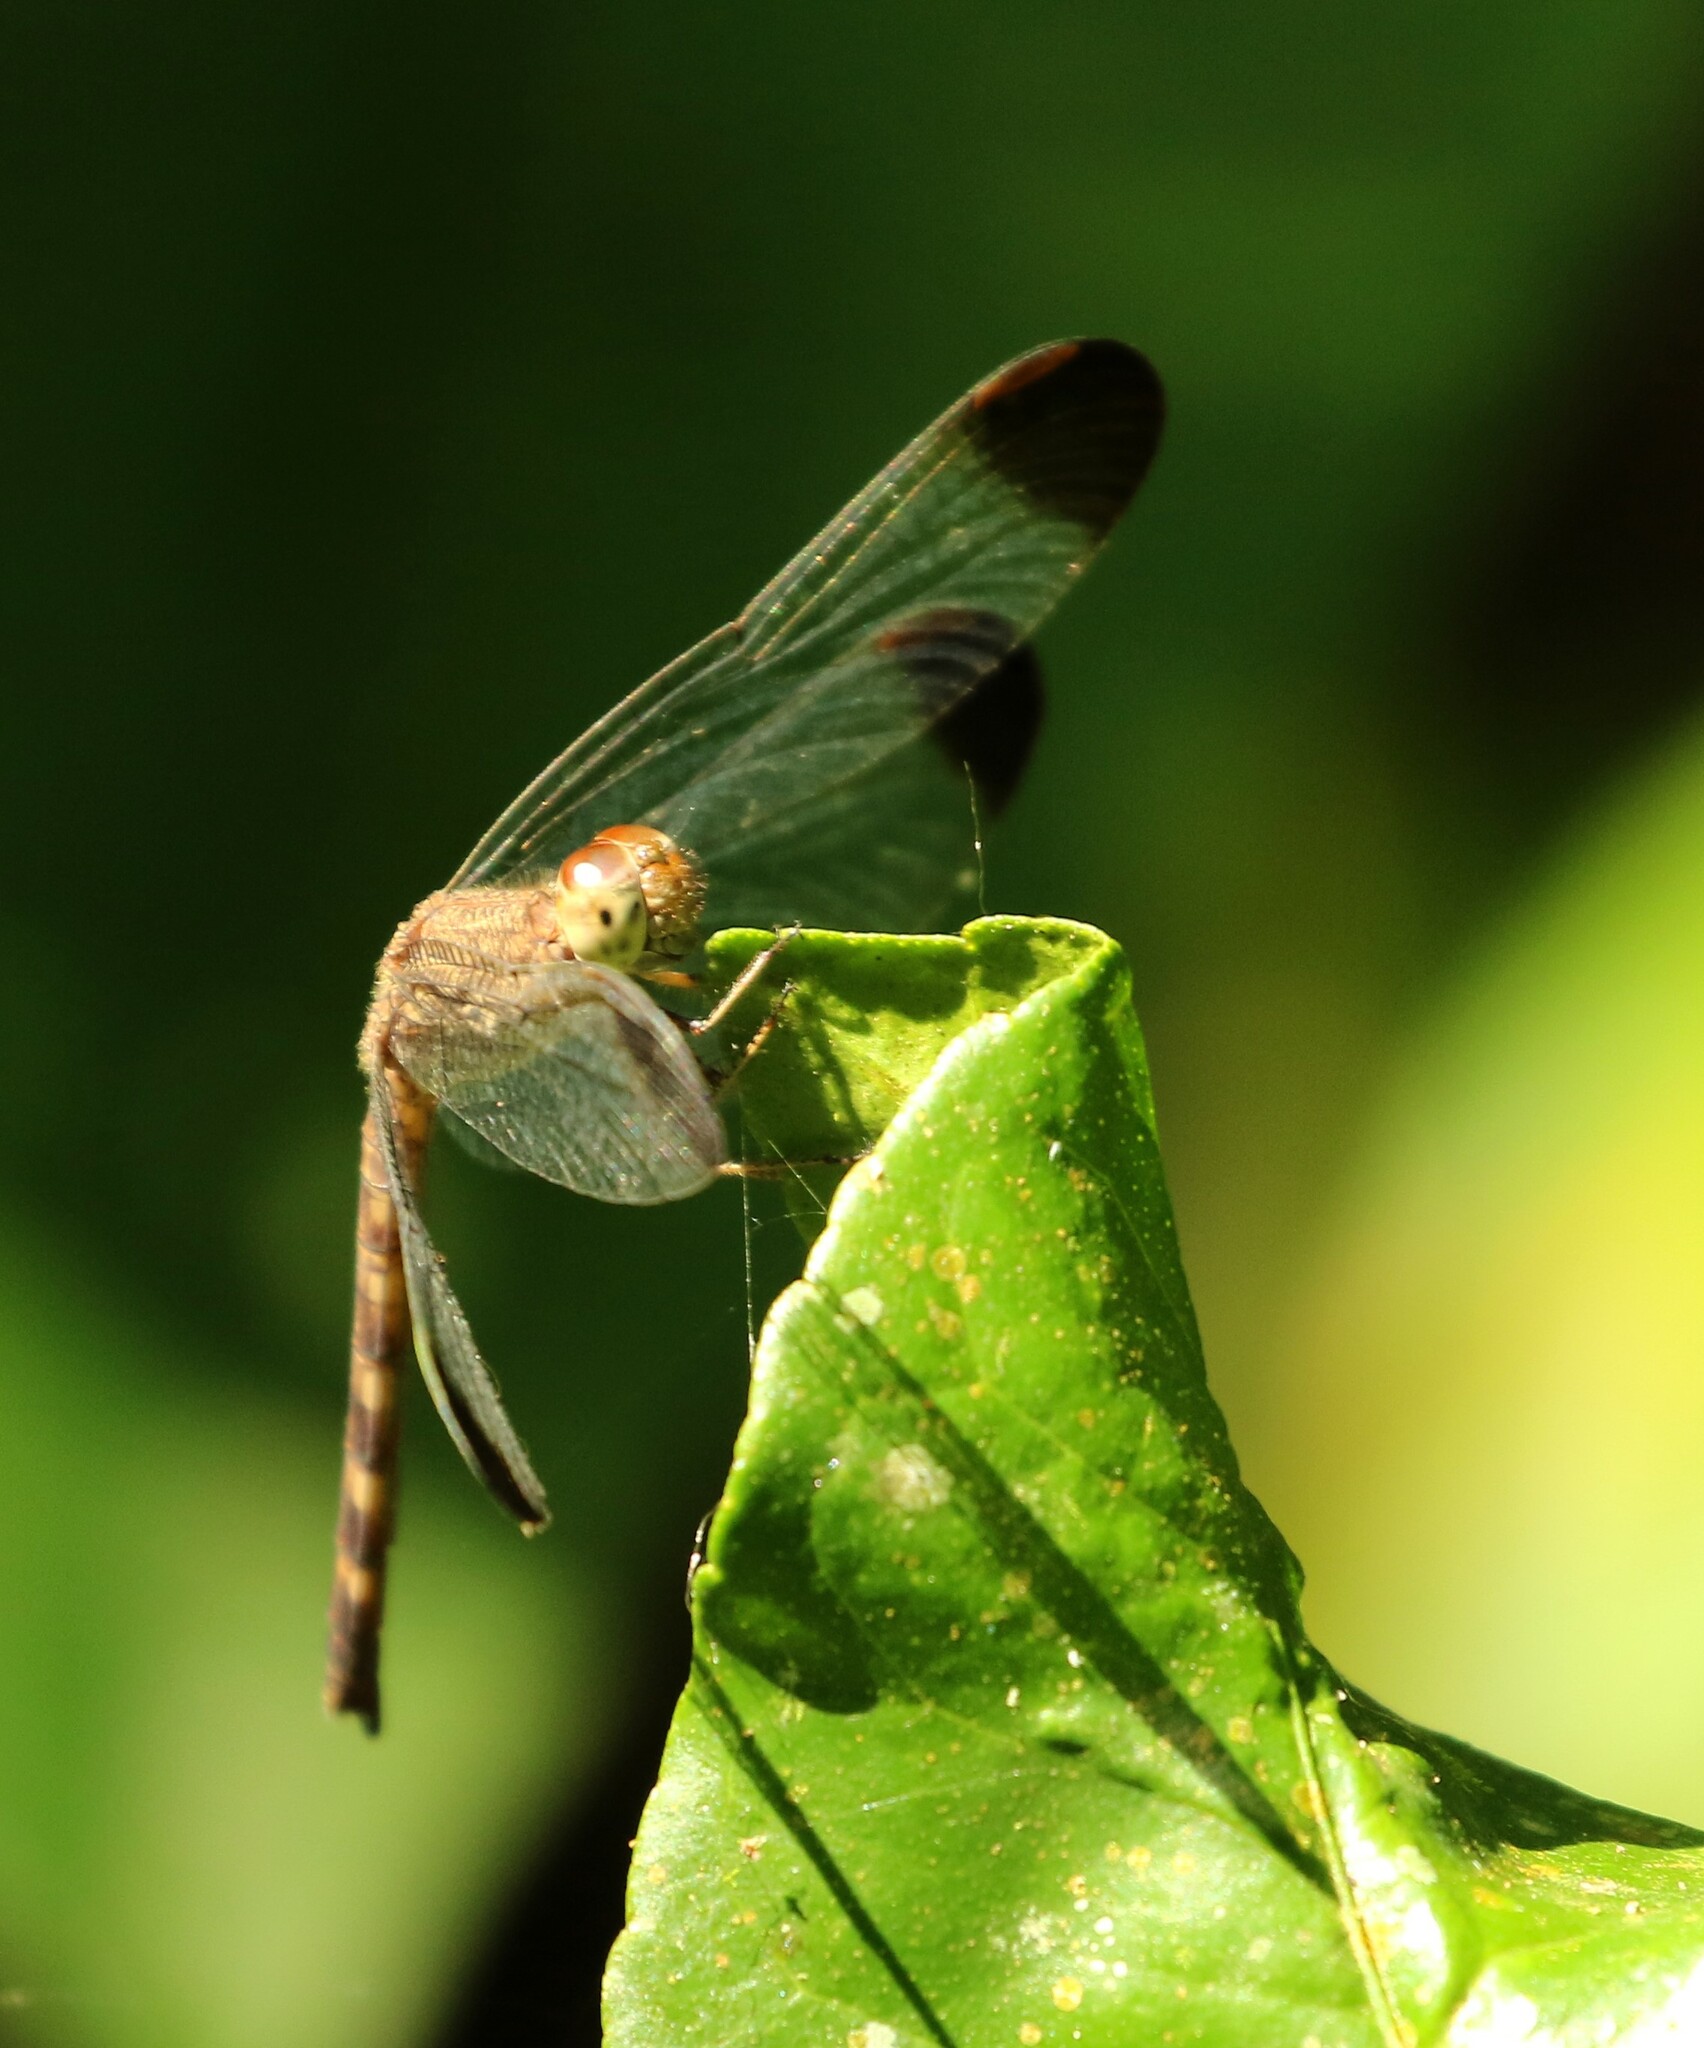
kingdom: Animalia
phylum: Arthropoda
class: Insecta
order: Odonata
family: Libellulidae
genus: Uracis
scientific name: Uracis imbuta
